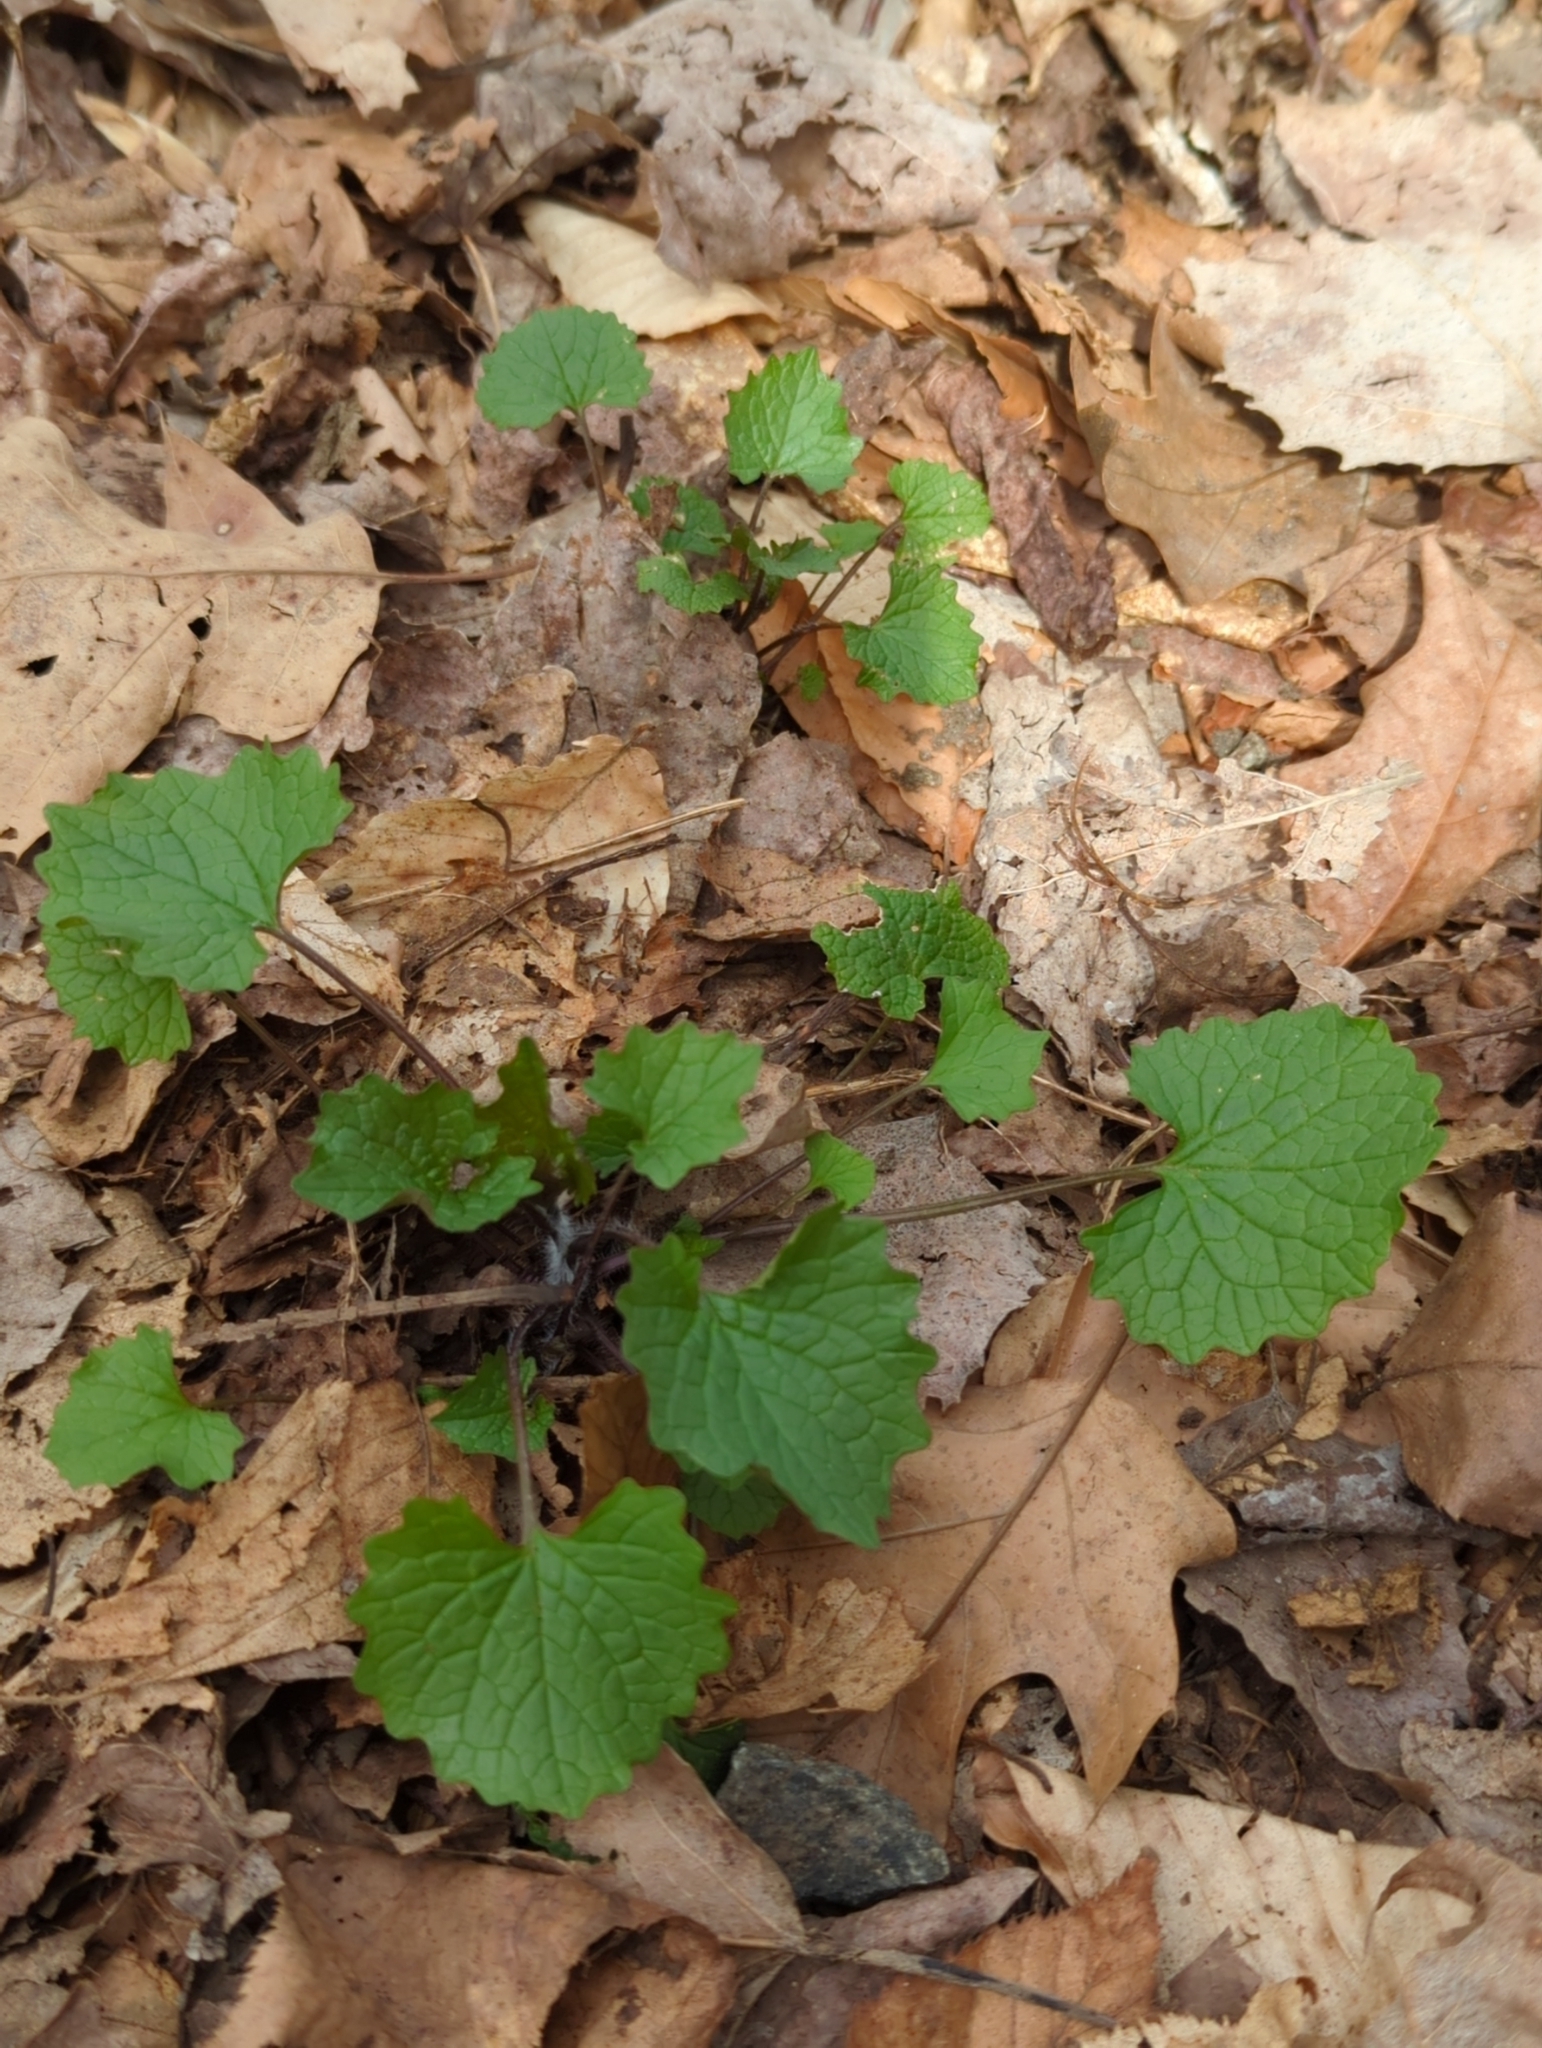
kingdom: Plantae
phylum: Tracheophyta
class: Magnoliopsida
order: Brassicales
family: Brassicaceae
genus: Alliaria
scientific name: Alliaria petiolata
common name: Garlic mustard
